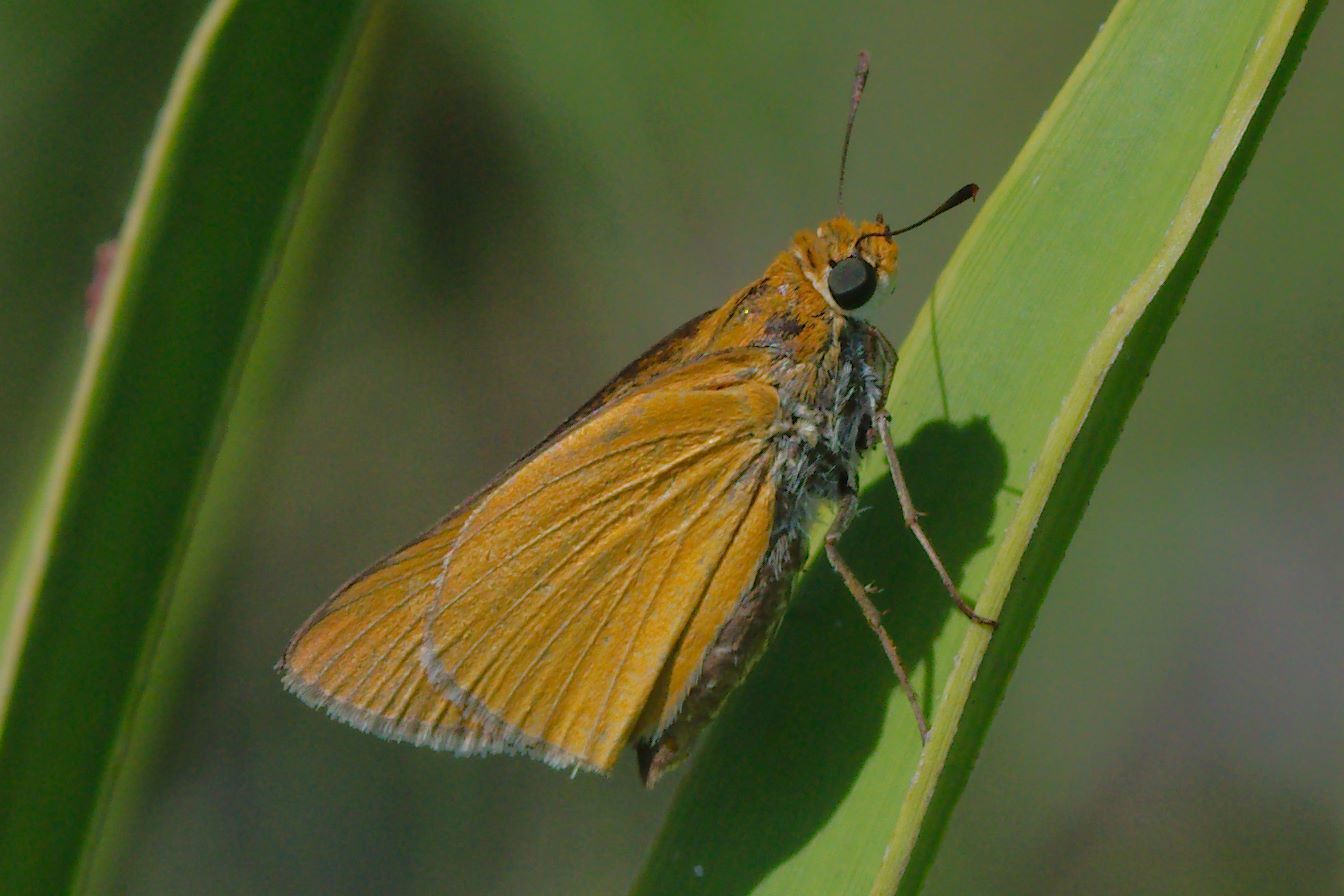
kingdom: Animalia
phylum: Arthropoda
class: Insecta
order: Lepidoptera
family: Hesperiidae
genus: Euphyes
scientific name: Euphyes arpa
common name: Palmetto skipper
